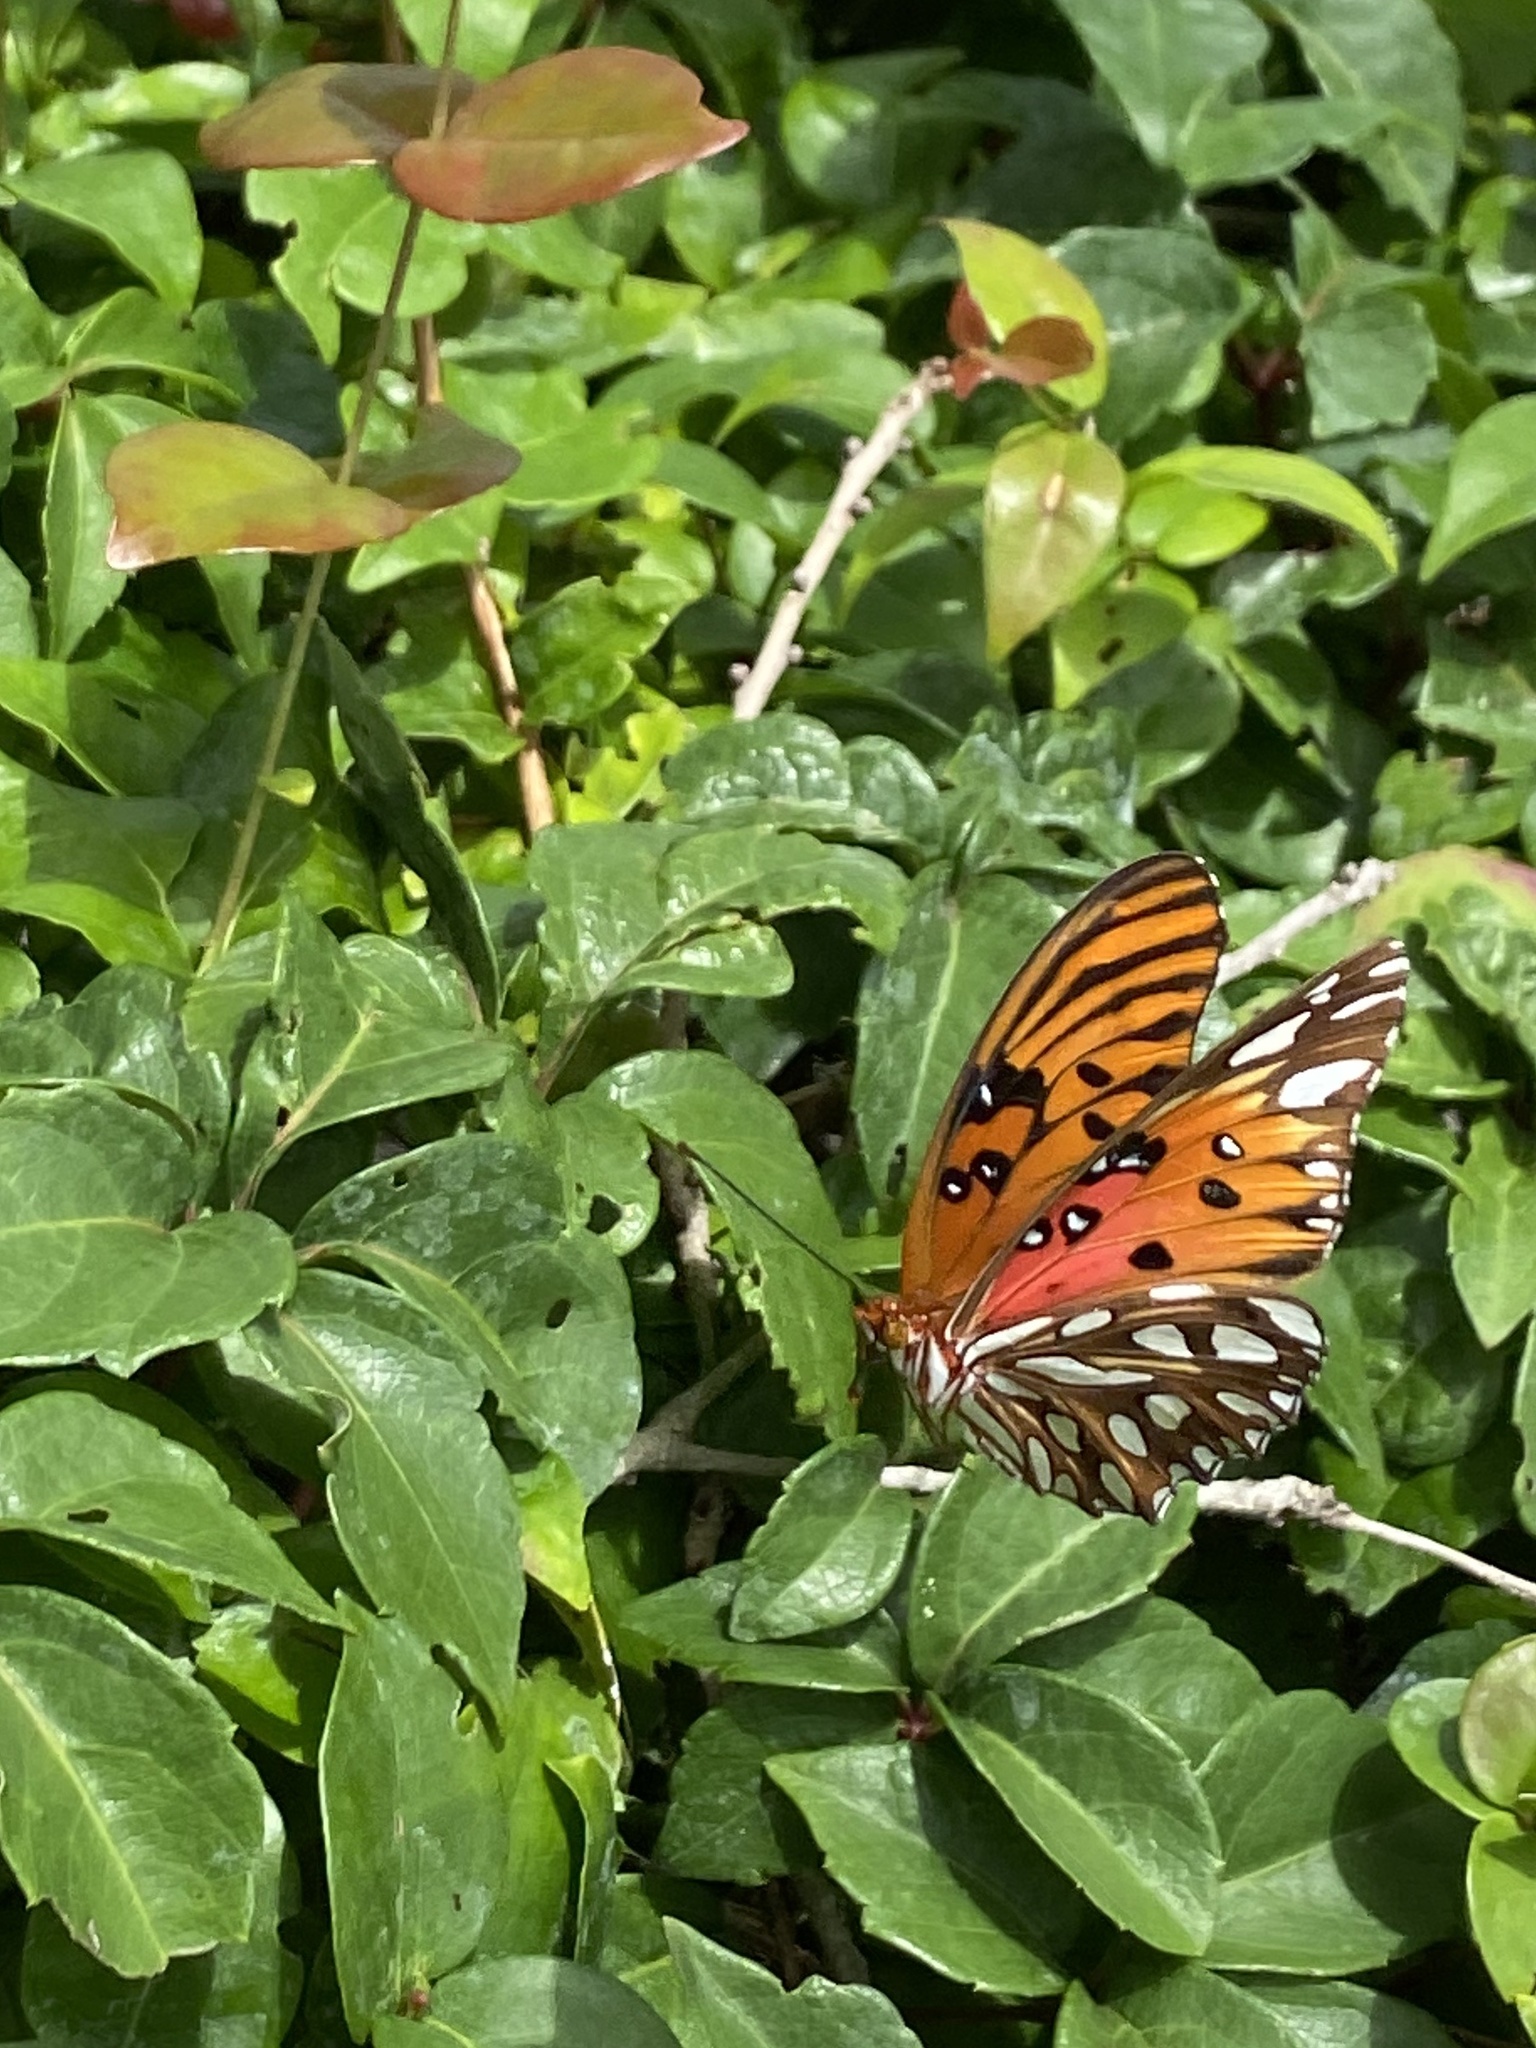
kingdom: Animalia
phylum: Arthropoda
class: Insecta
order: Lepidoptera
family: Nymphalidae
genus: Dione
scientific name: Dione vanillae
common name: Gulf fritillary
